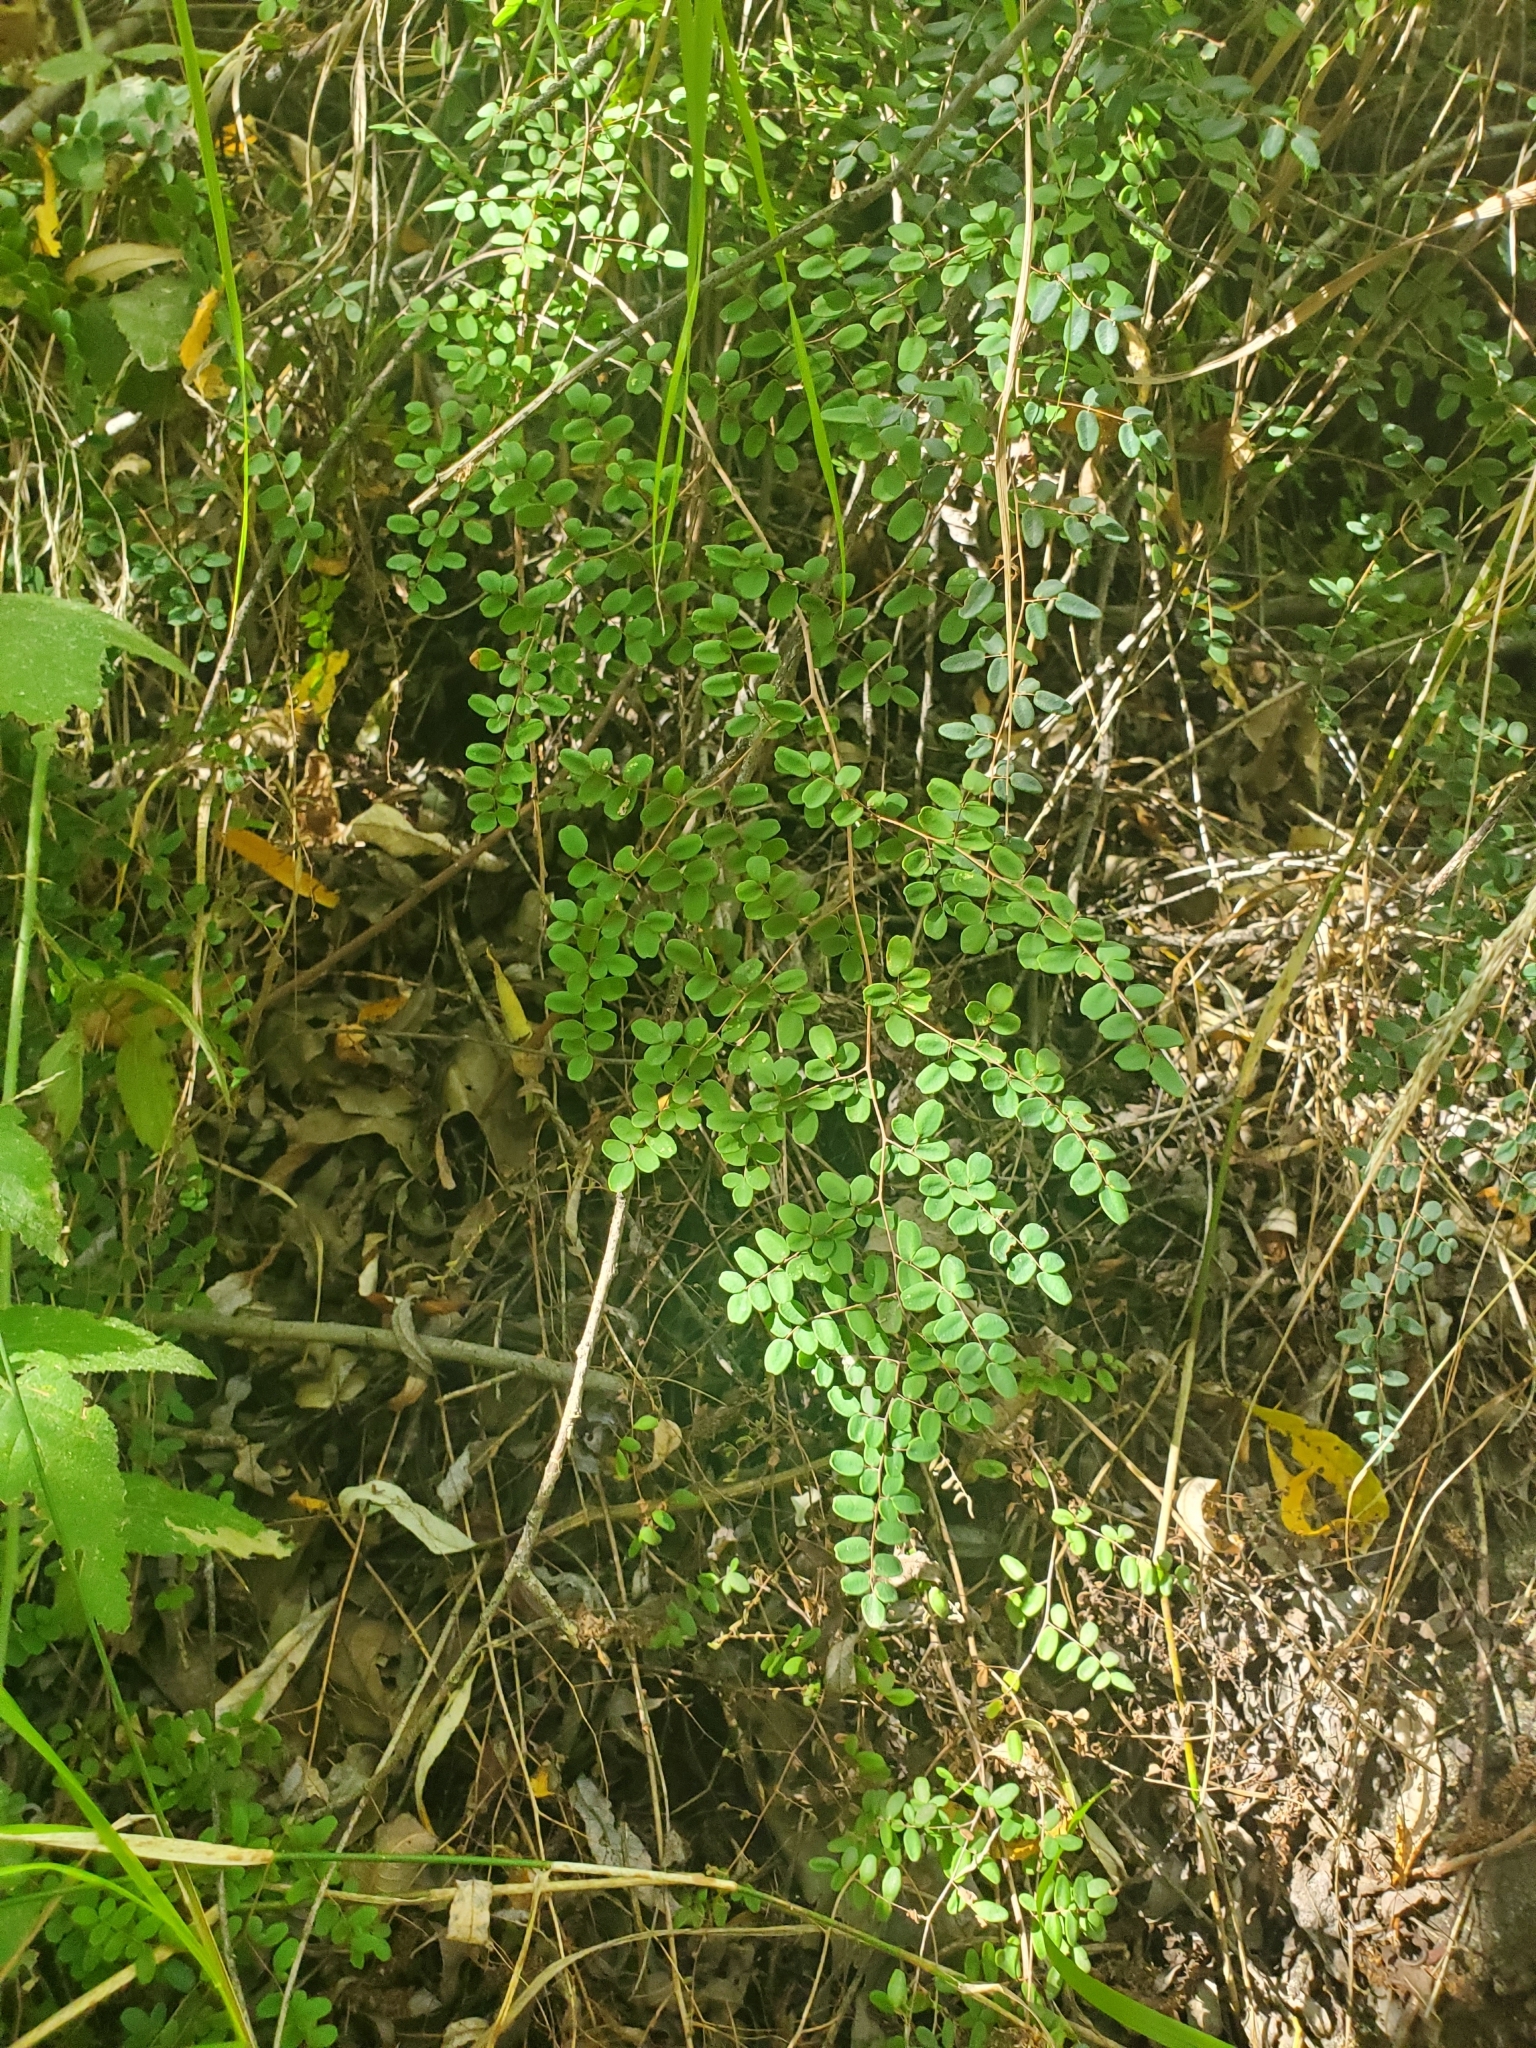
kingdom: Plantae
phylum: Tracheophyta
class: Polypodiopsida
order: Polypodiales
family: Pteridaceae
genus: Pellaea
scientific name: Pellaea andromedifolia
